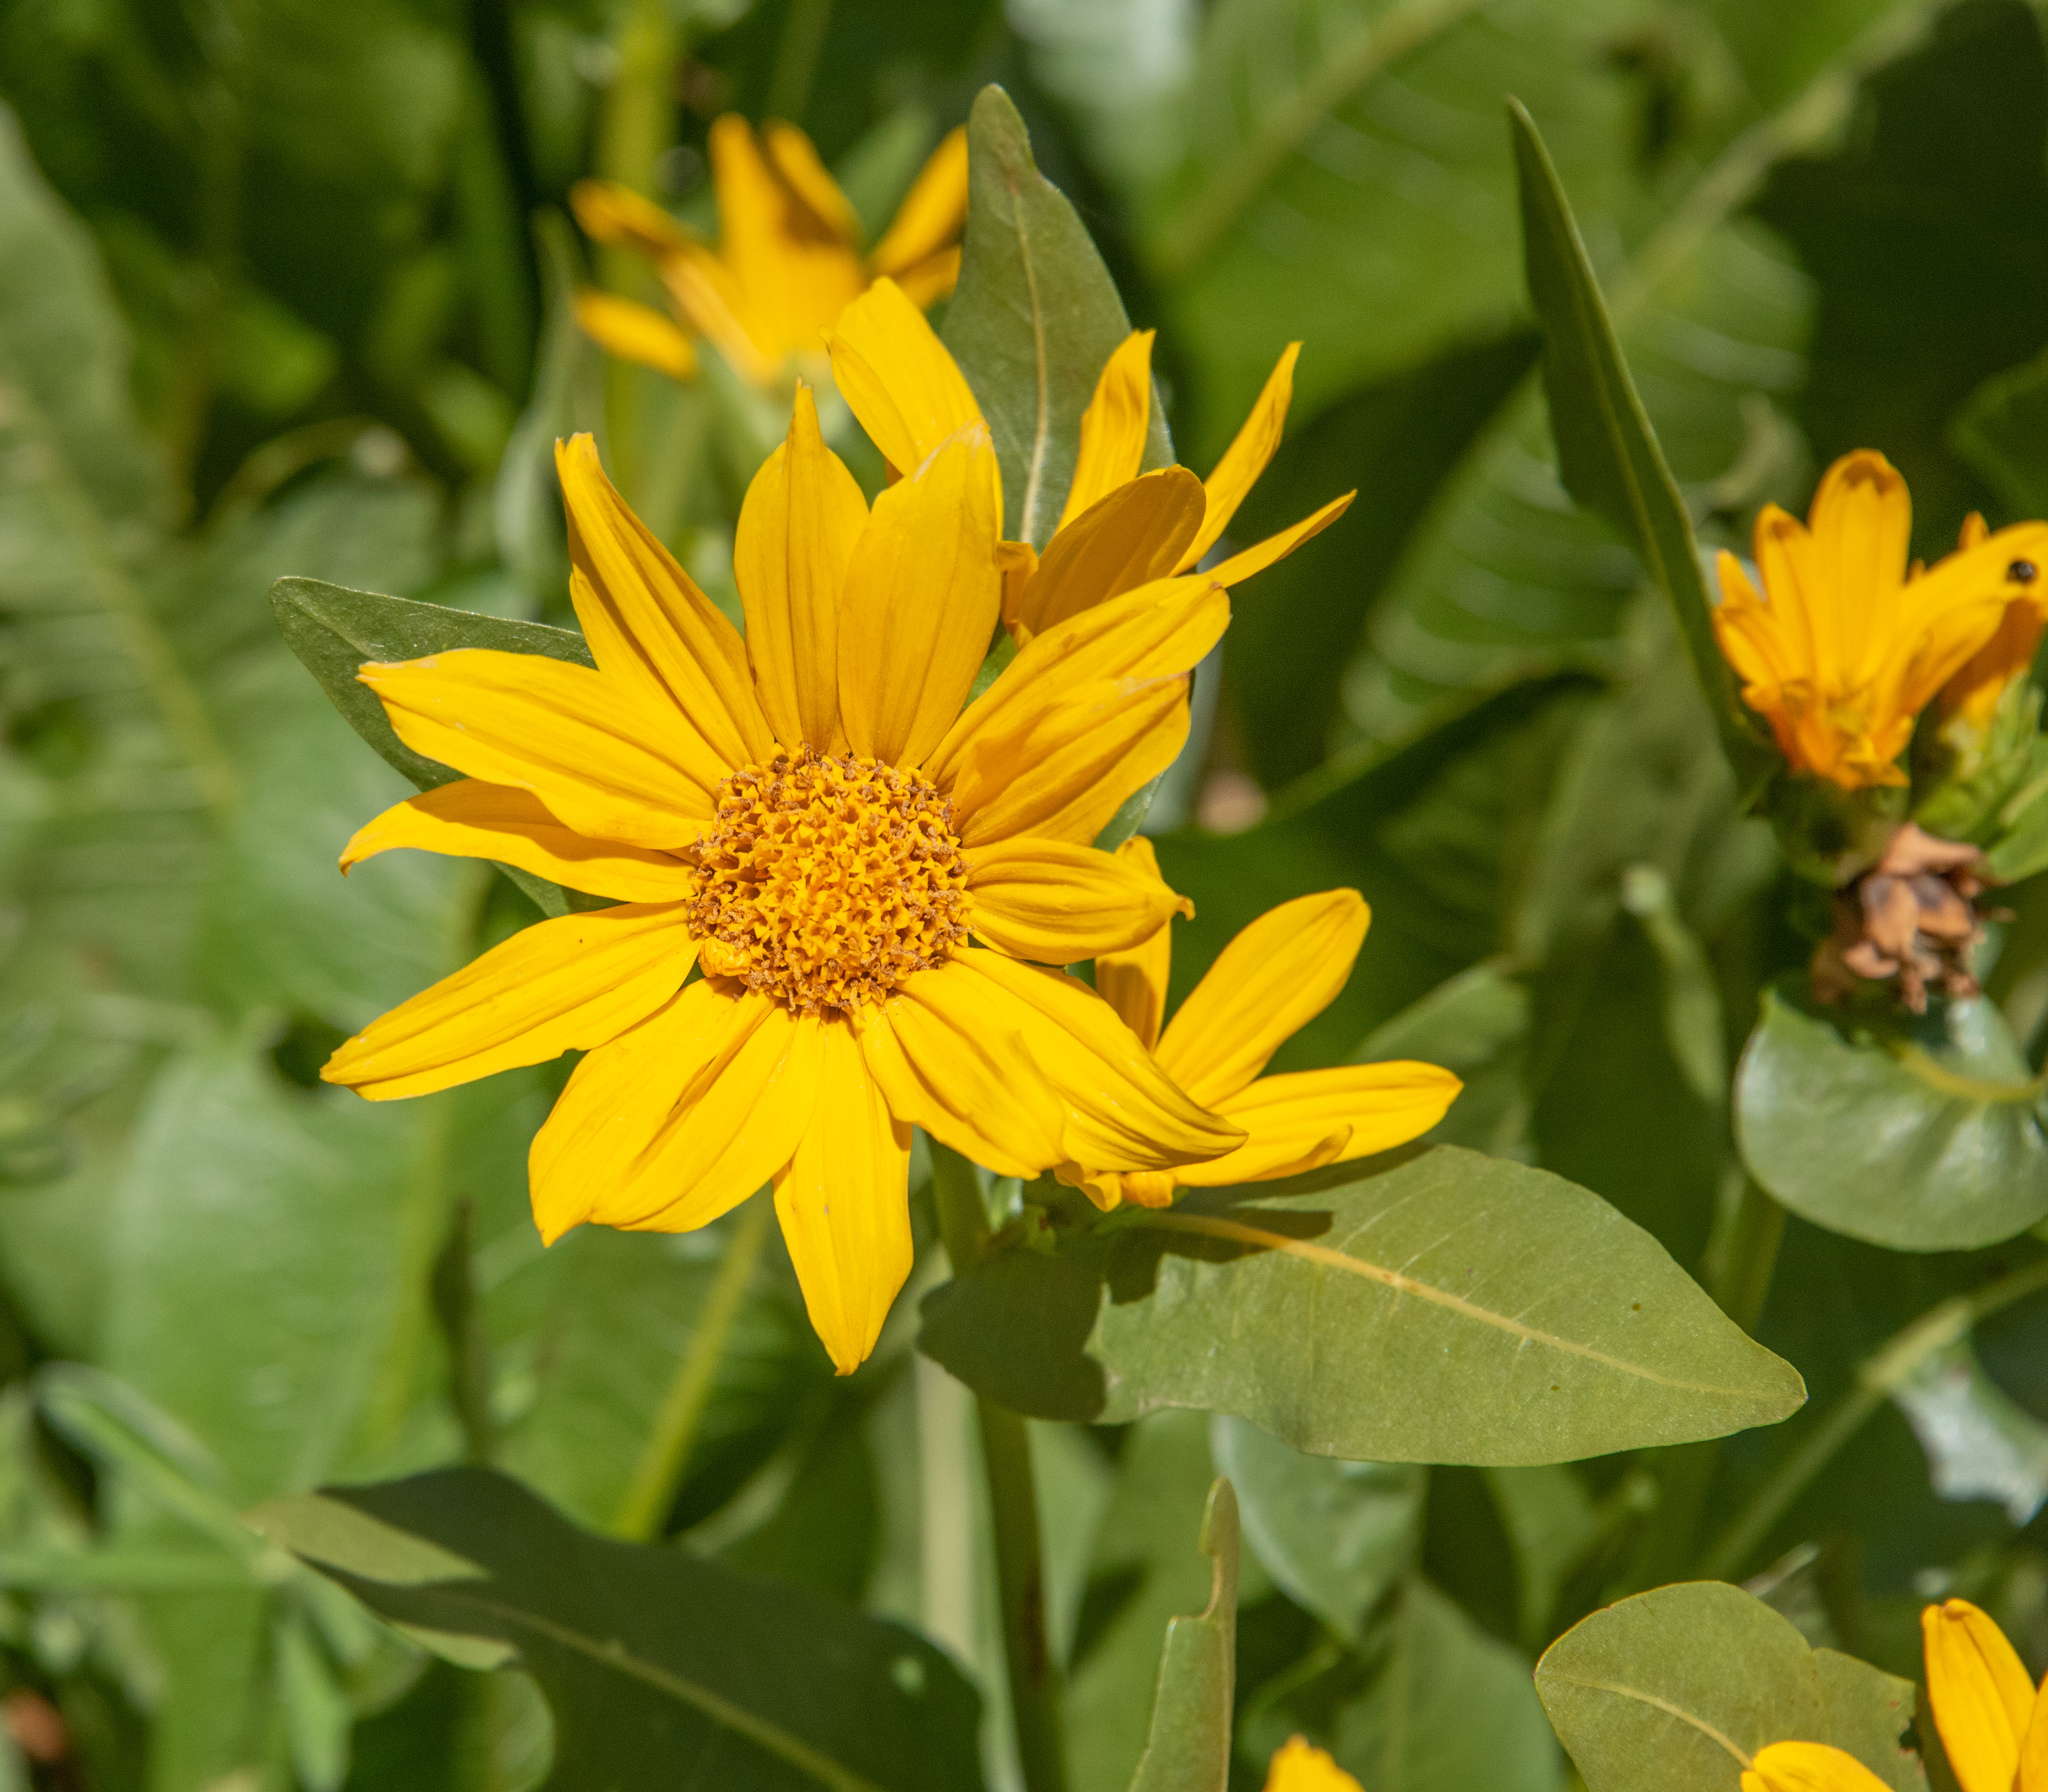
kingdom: Plantae
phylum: Tracheophyta
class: Magnoliopsida
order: Asterales
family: Asteraceae
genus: Wyethia
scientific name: Wyethia amplexicaulis
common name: Northern mule's-ears
